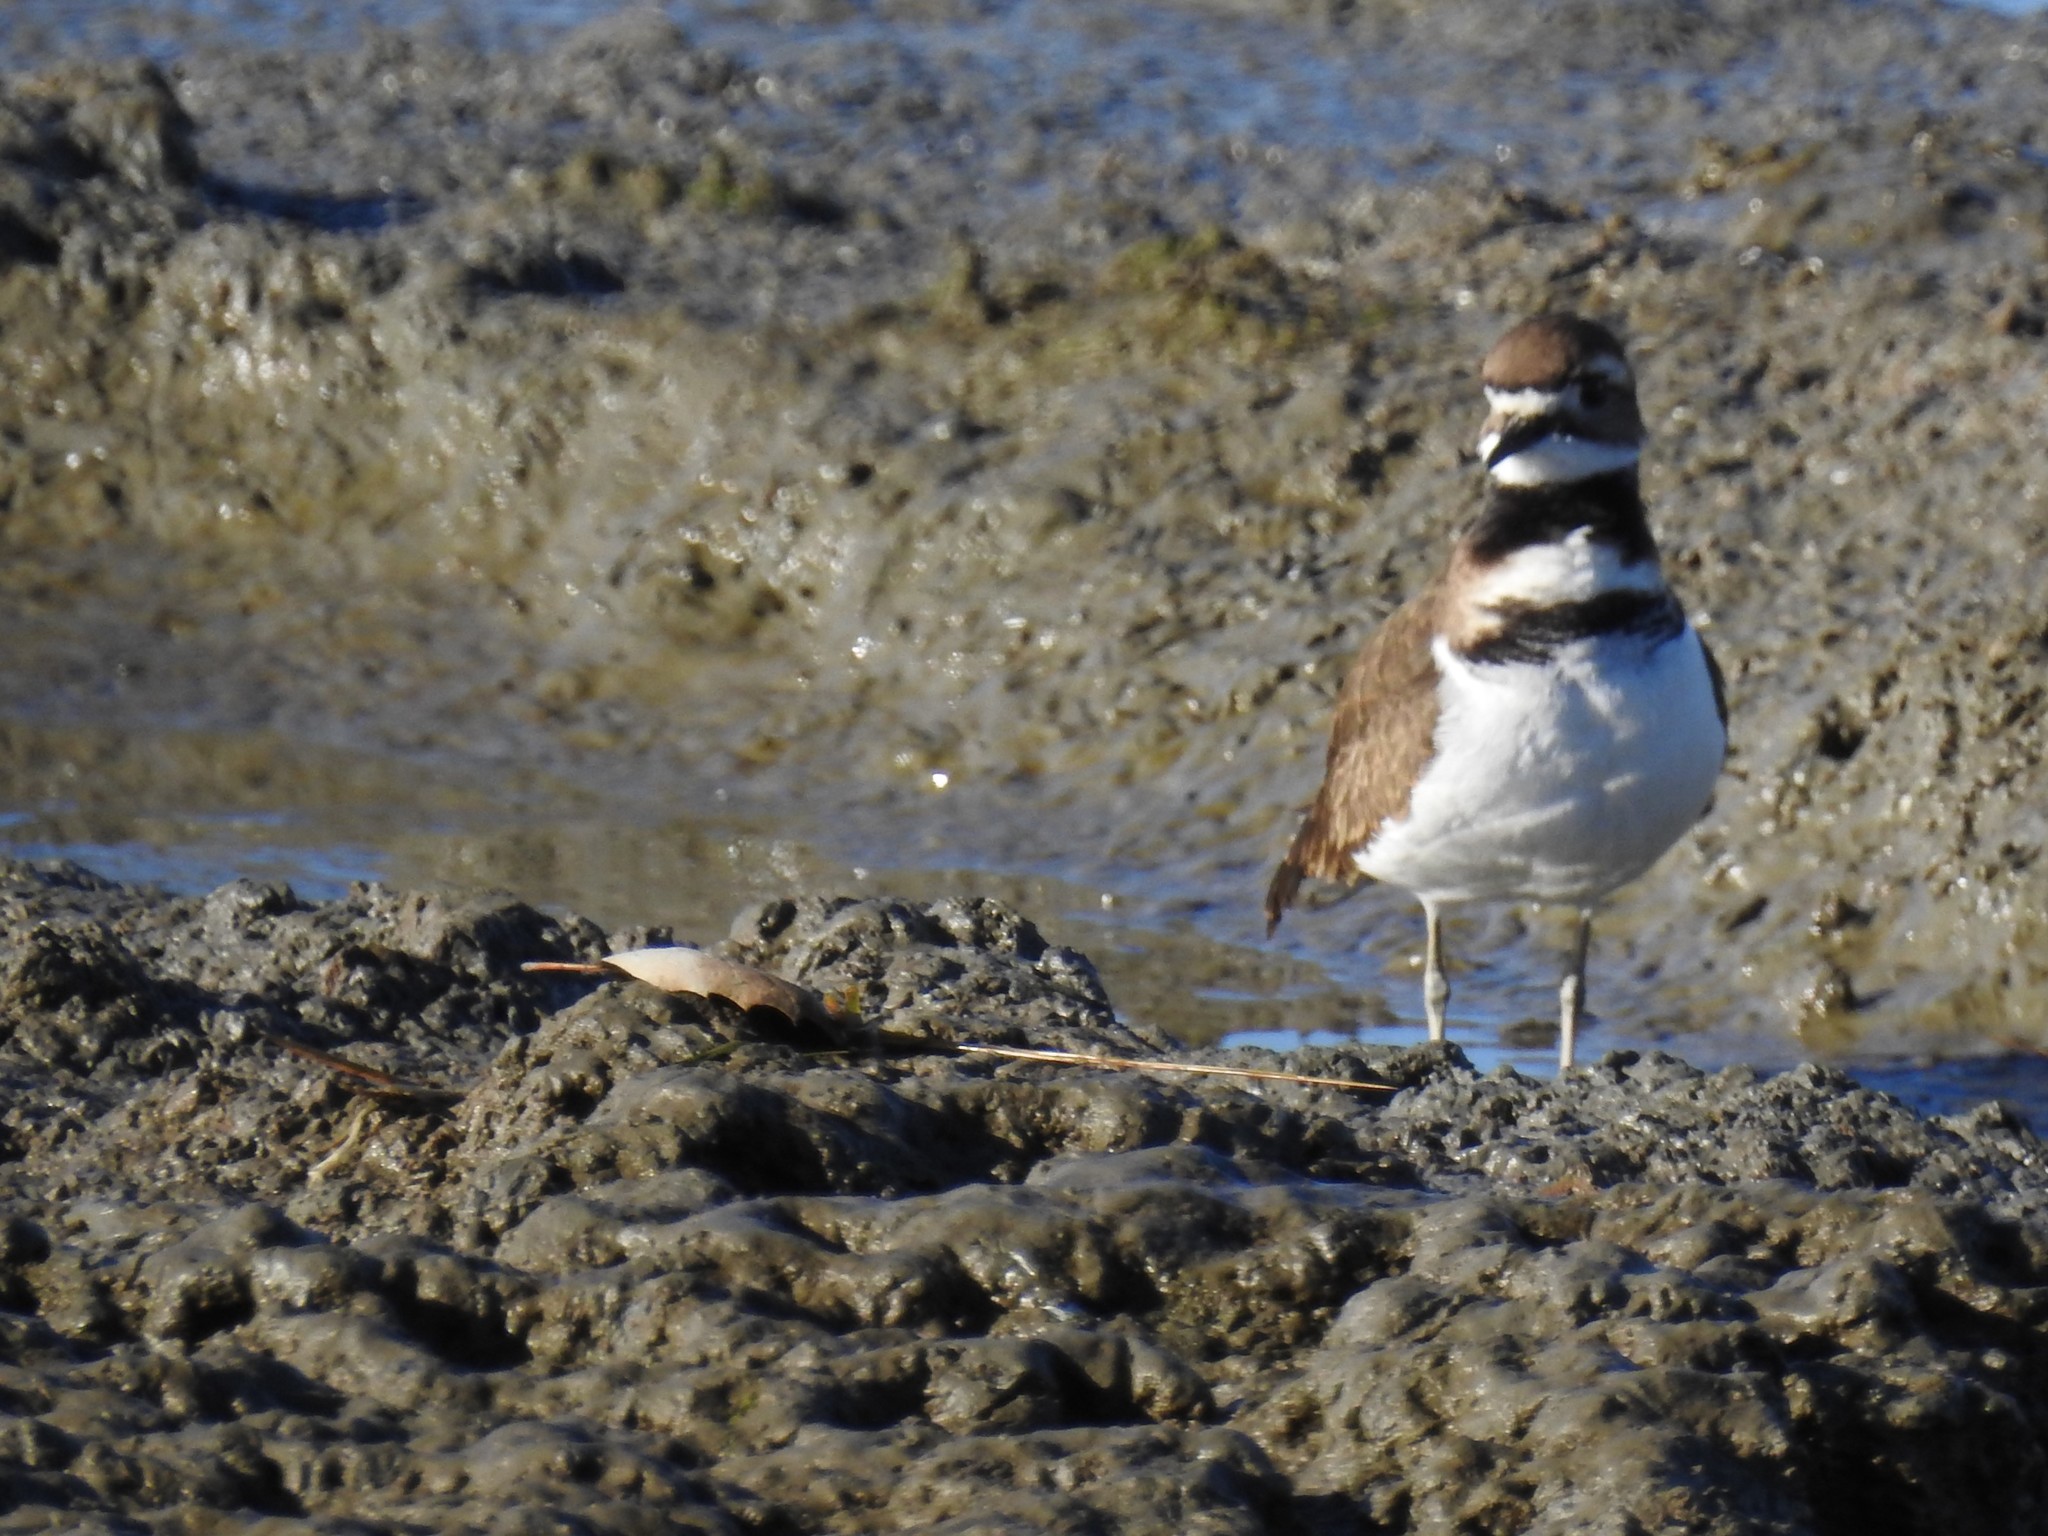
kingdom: Animalia
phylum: Chordata
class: Aves
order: Charadriiformes
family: Charadriidae
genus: Charadrius
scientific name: Charadrius vociferus
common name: Killdeer
